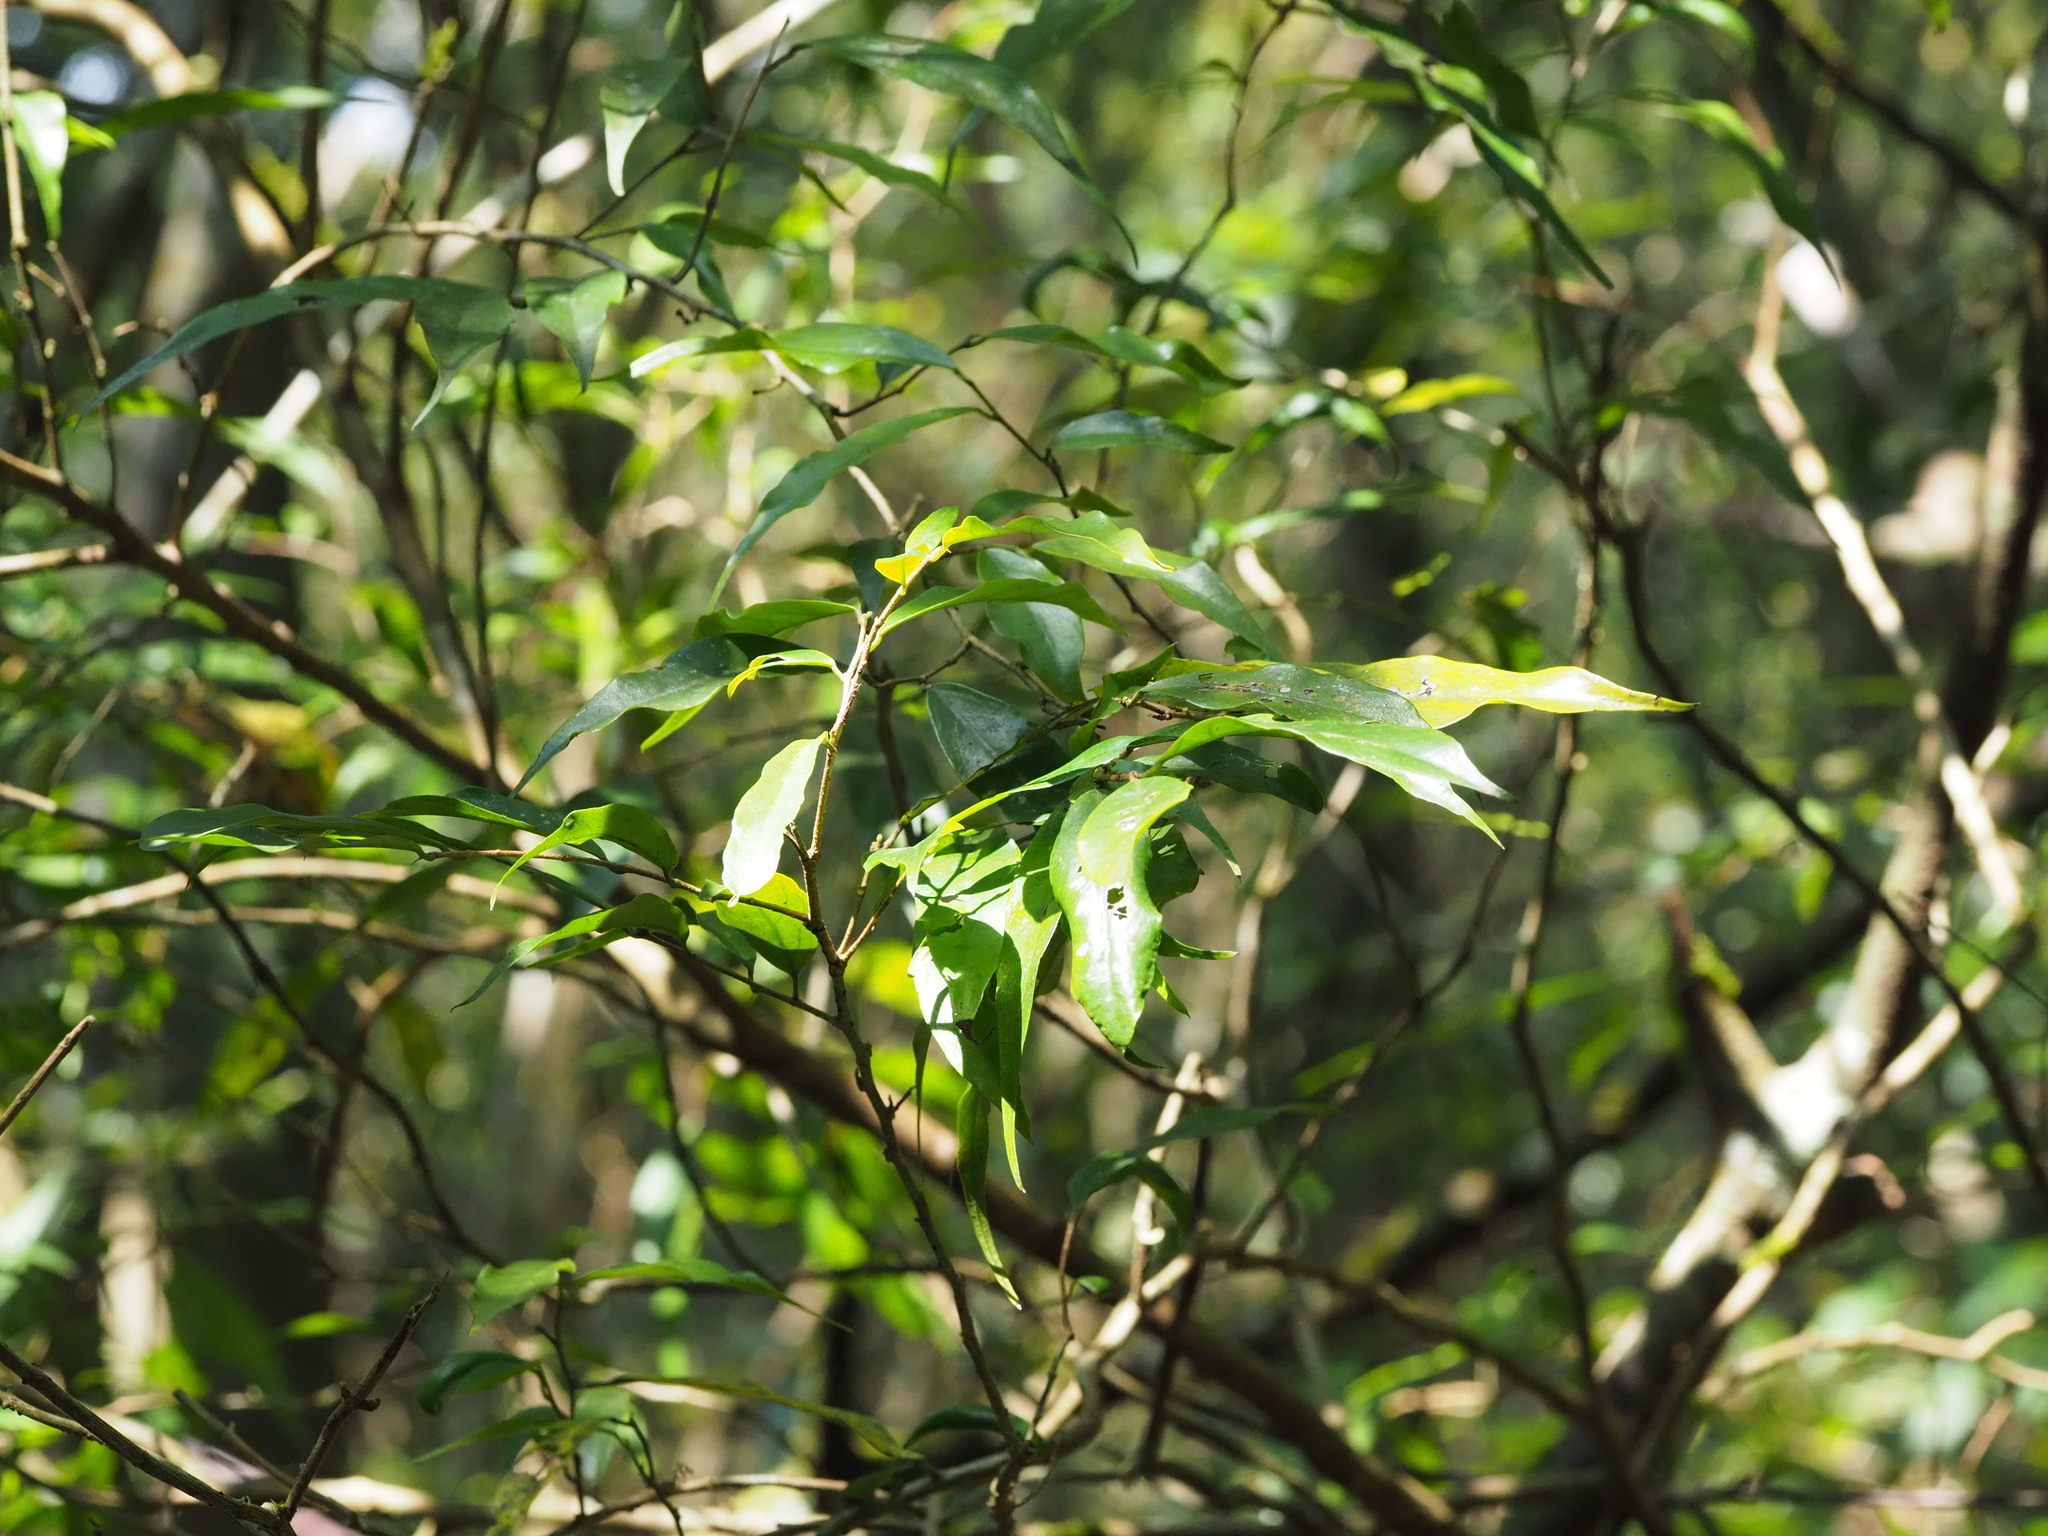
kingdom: Plantae
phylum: Tracheophyta
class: Magnoliopsida
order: Malpighiales
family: Phyllanthaceae
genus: Antidesma
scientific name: Antidesma japonicum
